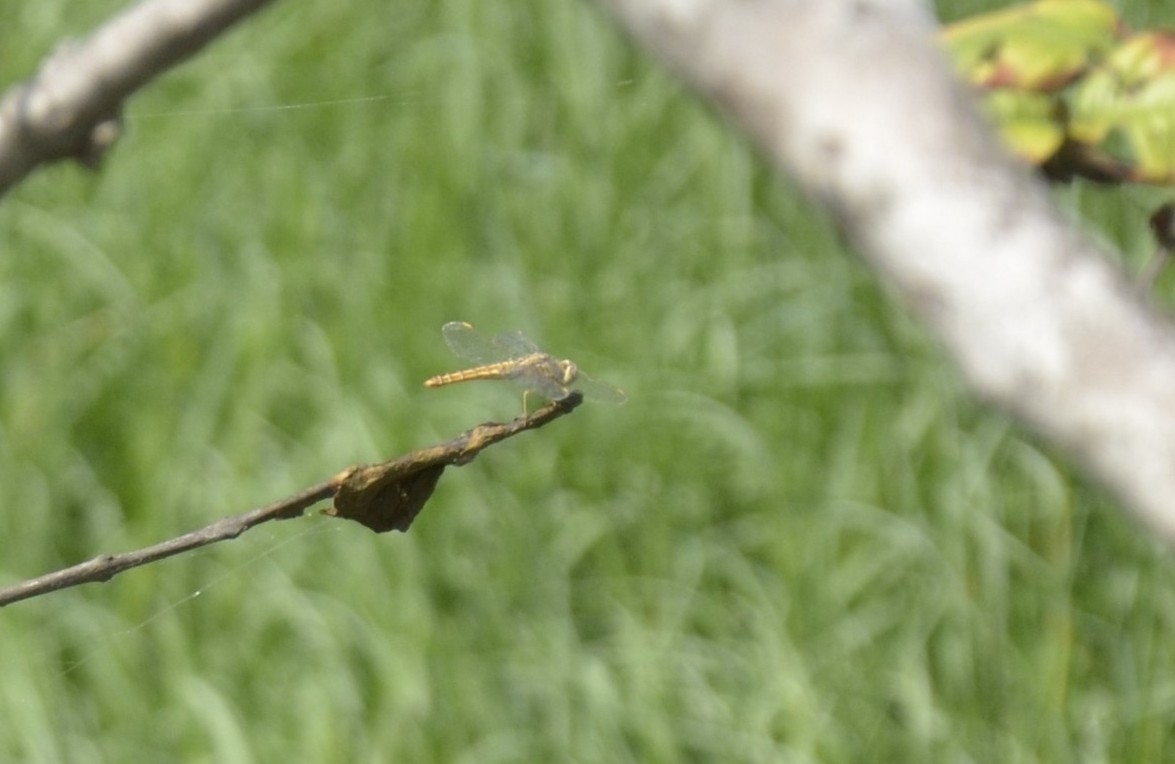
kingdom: Animalia
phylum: Arthropoda
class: Insecta
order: Odonata
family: Libellulidae
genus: Brachythemis
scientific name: Brachythemis contaminata
